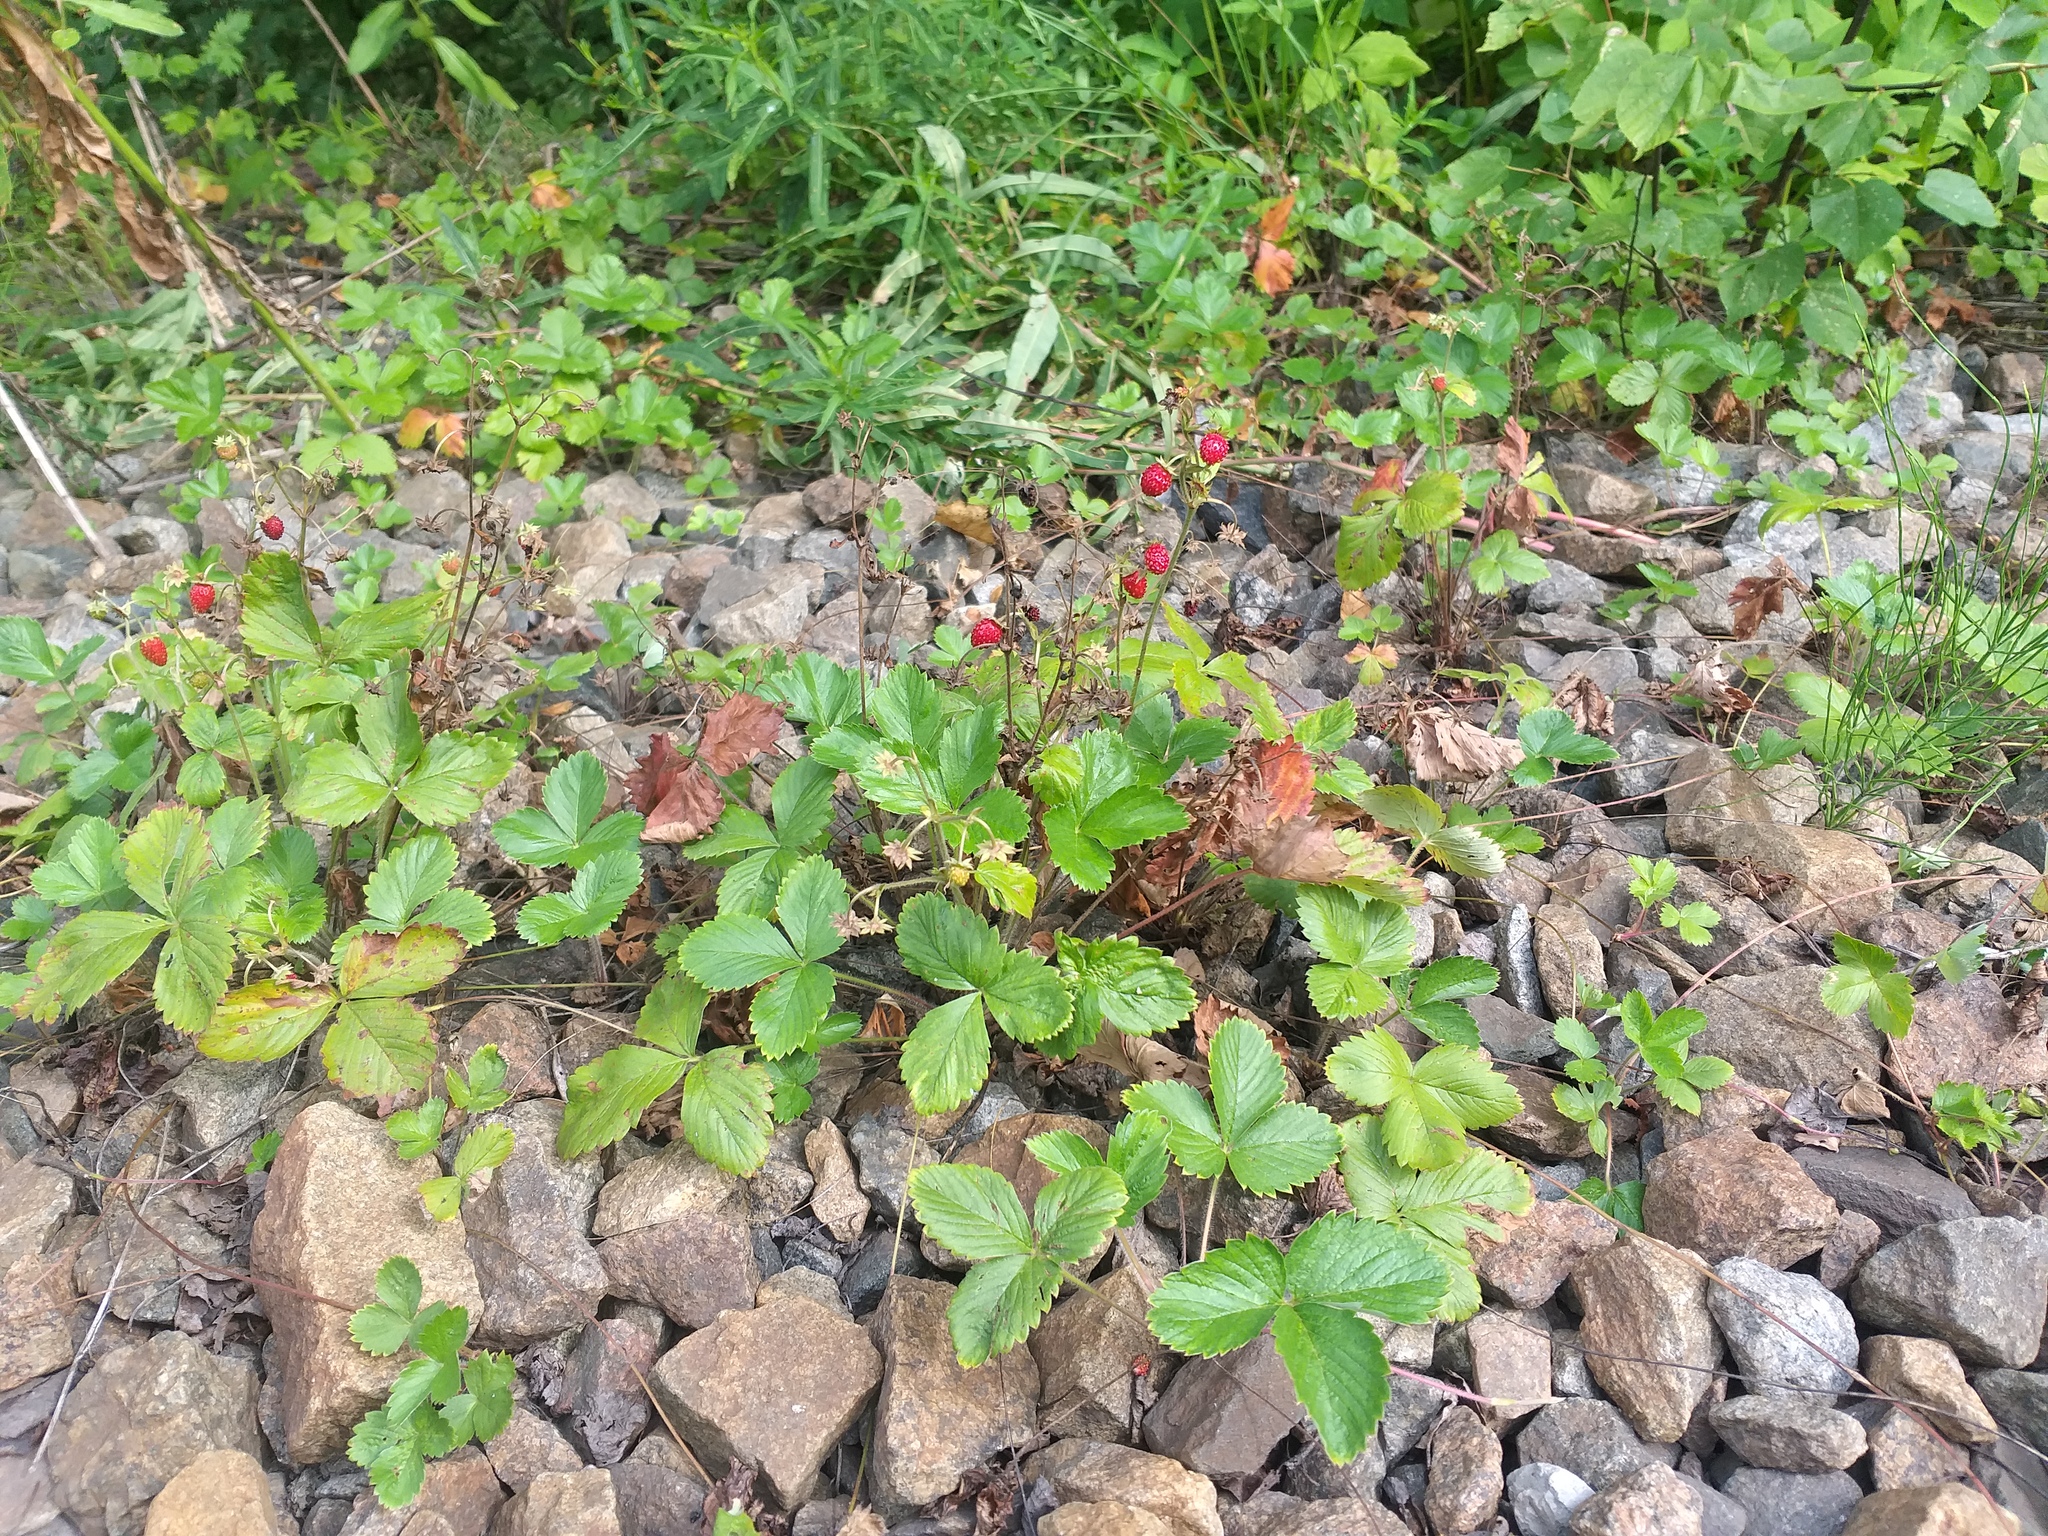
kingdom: Plantae
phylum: Tracheophyta
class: Magnoliopsida
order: Rosales
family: Rosaceae
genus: Fragaria
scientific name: Fragaria vesca
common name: Wild strawberry
